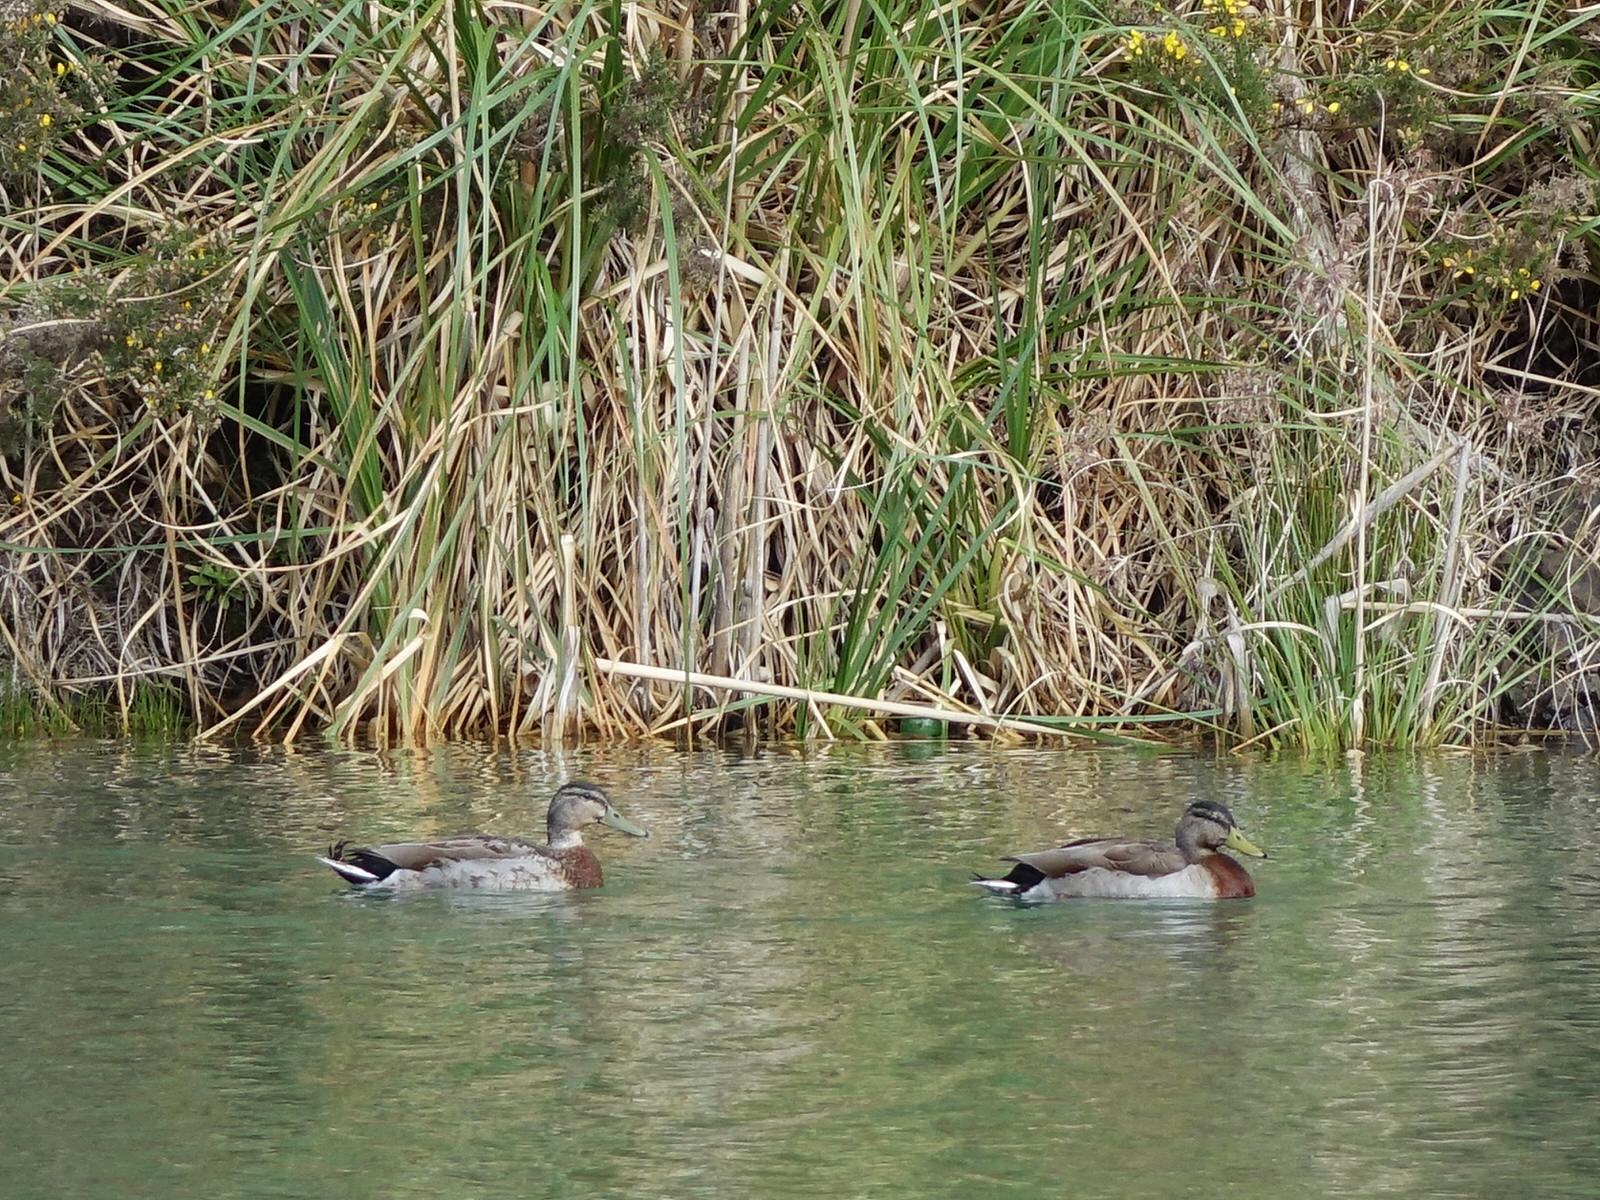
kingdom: Animalia
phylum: Chordata
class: Aves
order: Anseriformes
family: Anatidae
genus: Anas
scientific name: Anas platyrhynchos
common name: Mallard
